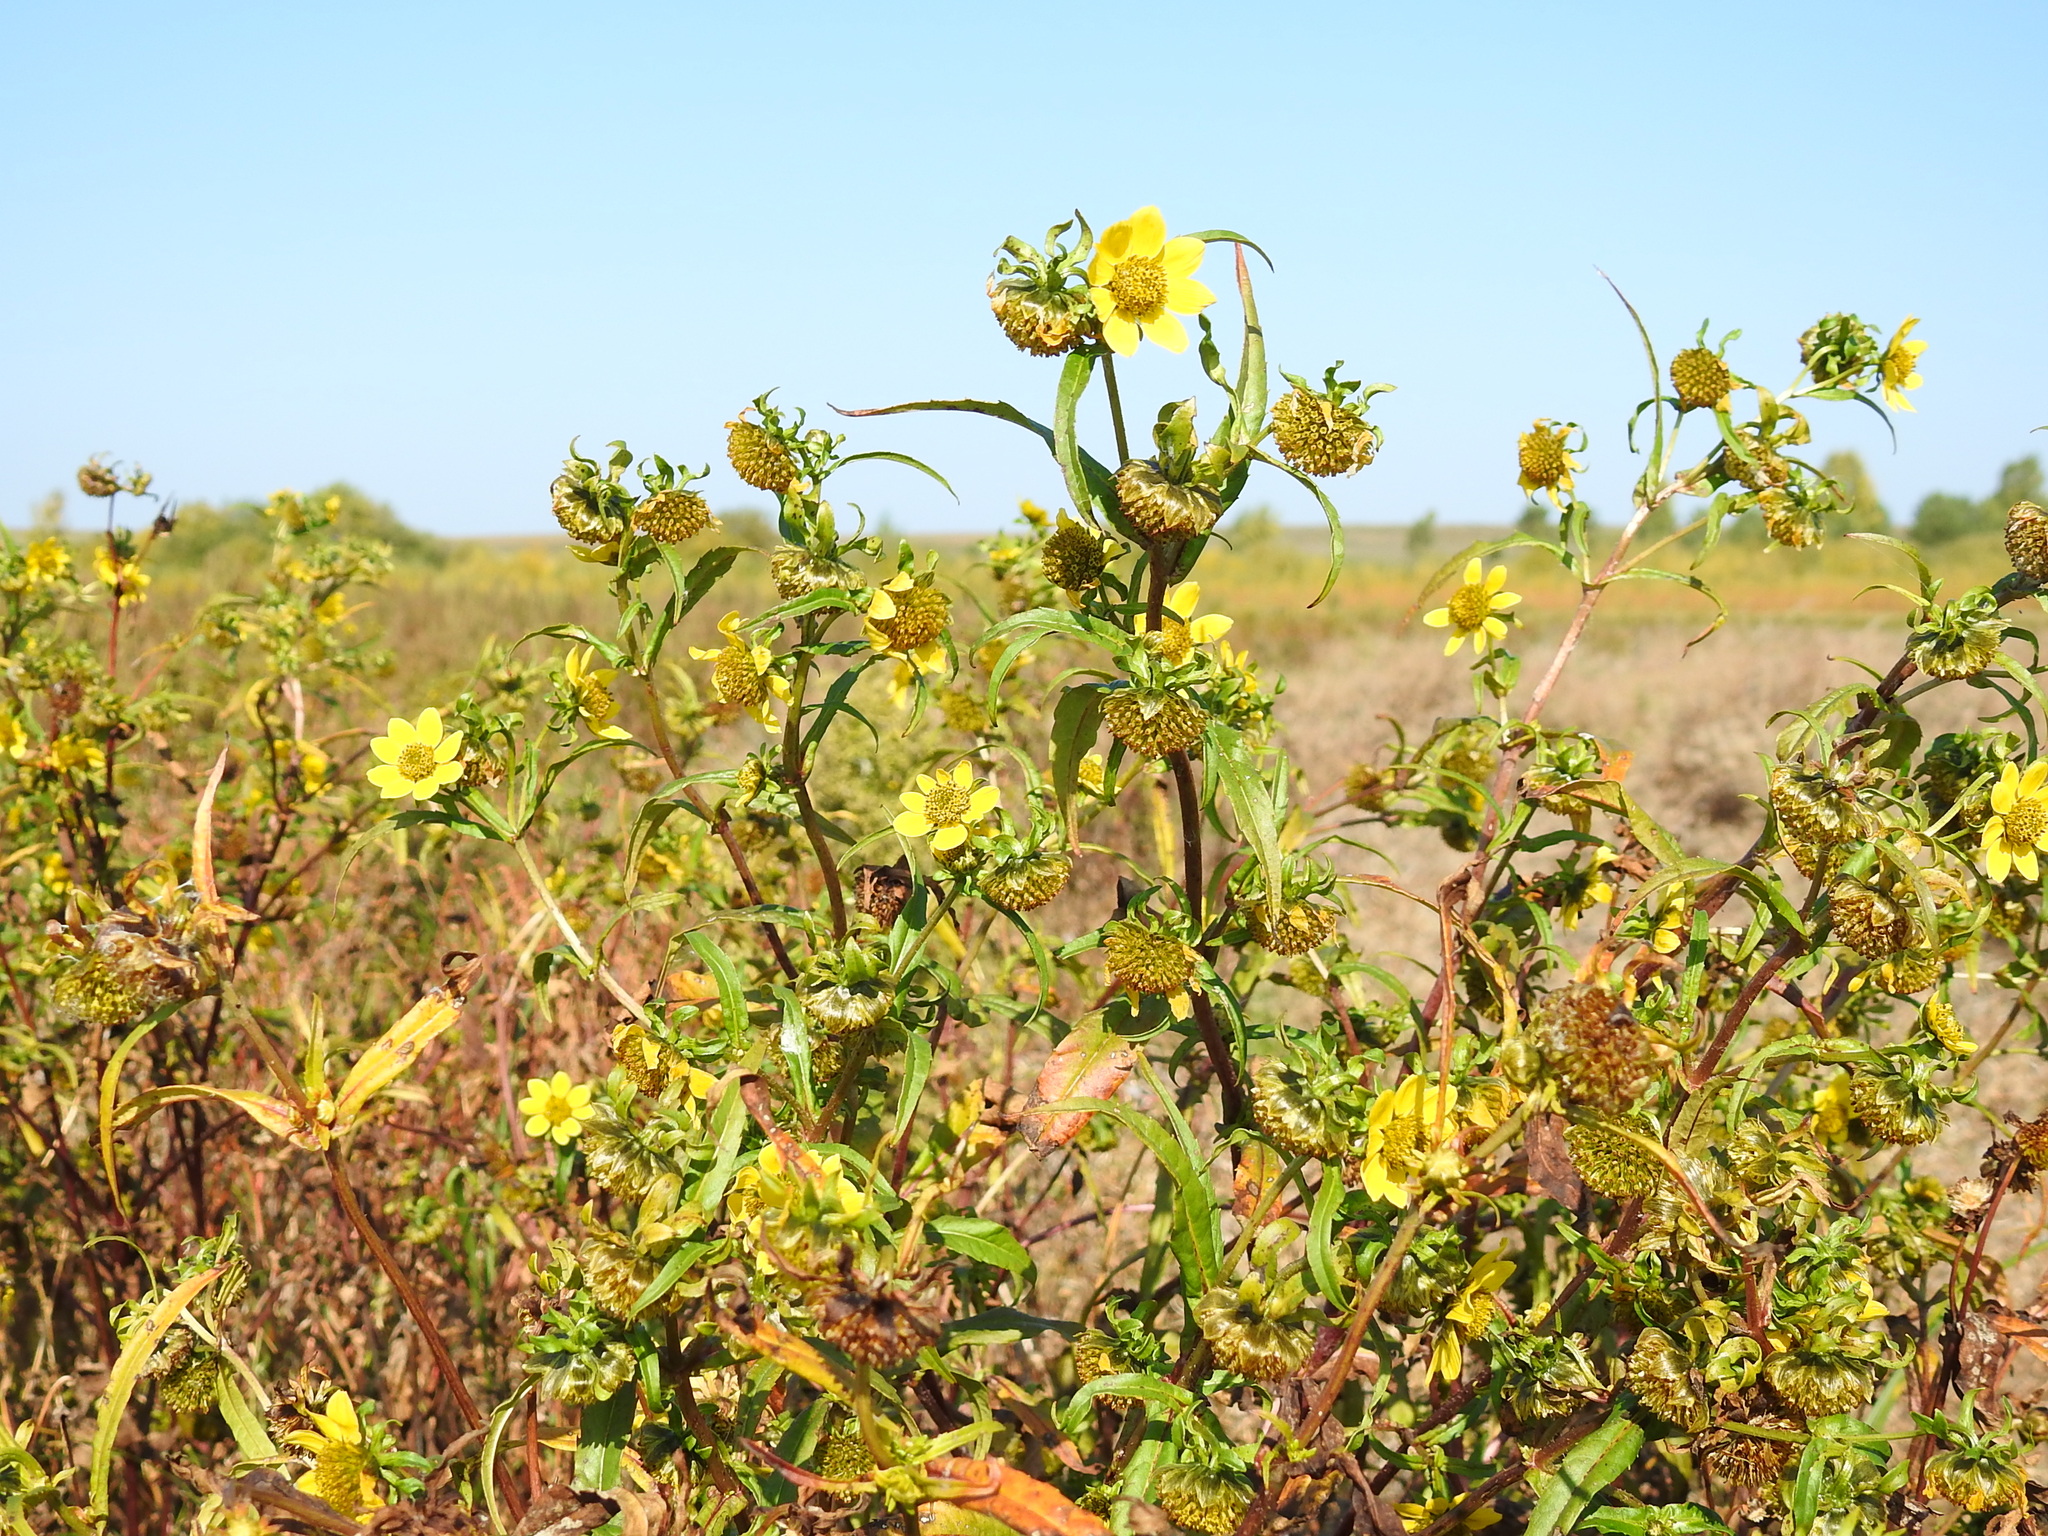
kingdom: Plantae
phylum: Tracheophyta
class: Magnoliopsida
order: Asterales
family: Asteraceae
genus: Bidens
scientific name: Bidens cernua
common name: Nodding bur-marigold
